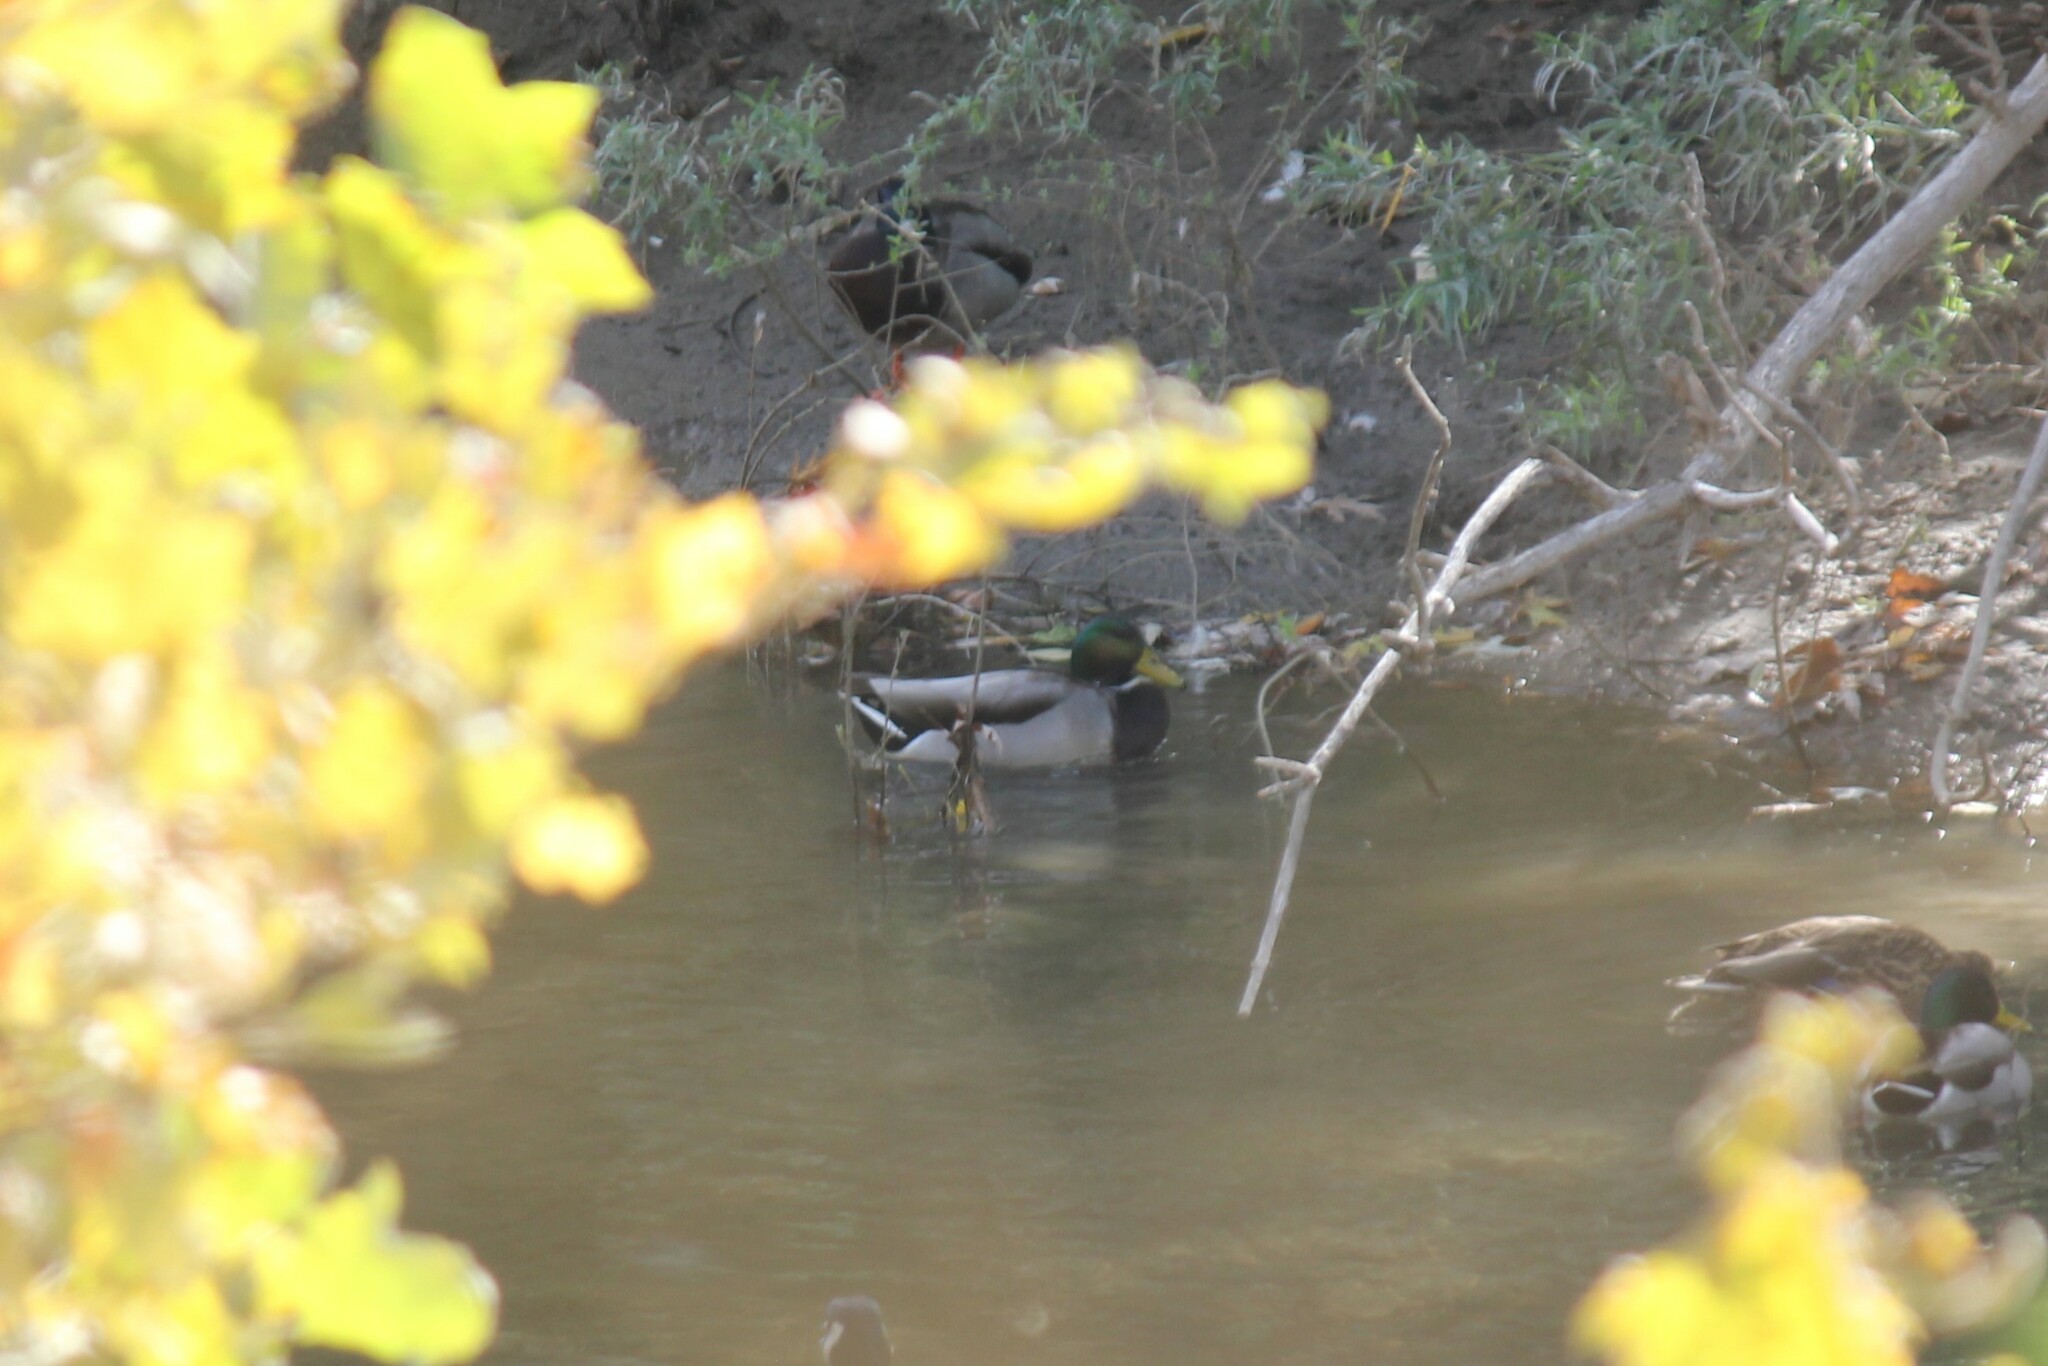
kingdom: Animalia
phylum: Chordata
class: Aves
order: Anseriformes
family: Anatidae
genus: Anas
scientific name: Anas platyrhynchos
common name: Mallard
